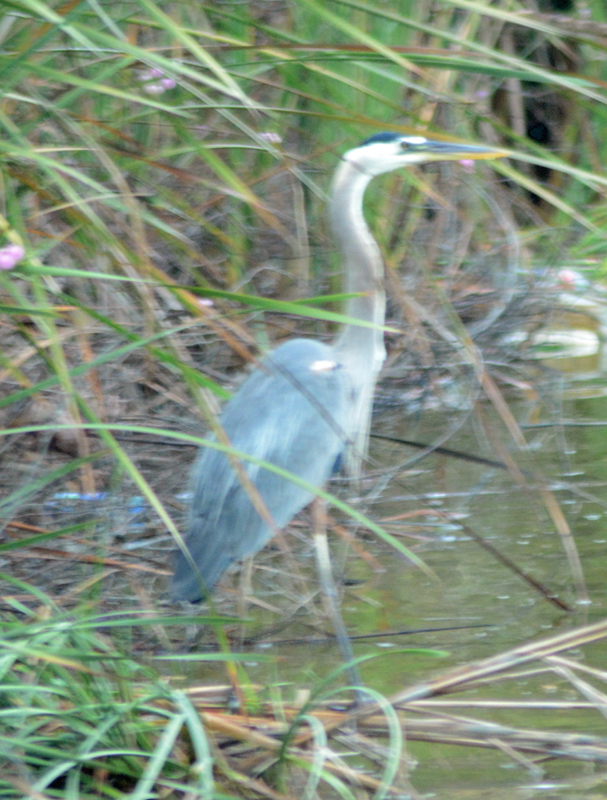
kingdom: Animalia
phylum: Chordata
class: Aves
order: Pelecaniformes
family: Ardeidae
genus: Ardea
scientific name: Ardea herodias
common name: Great blue heron
